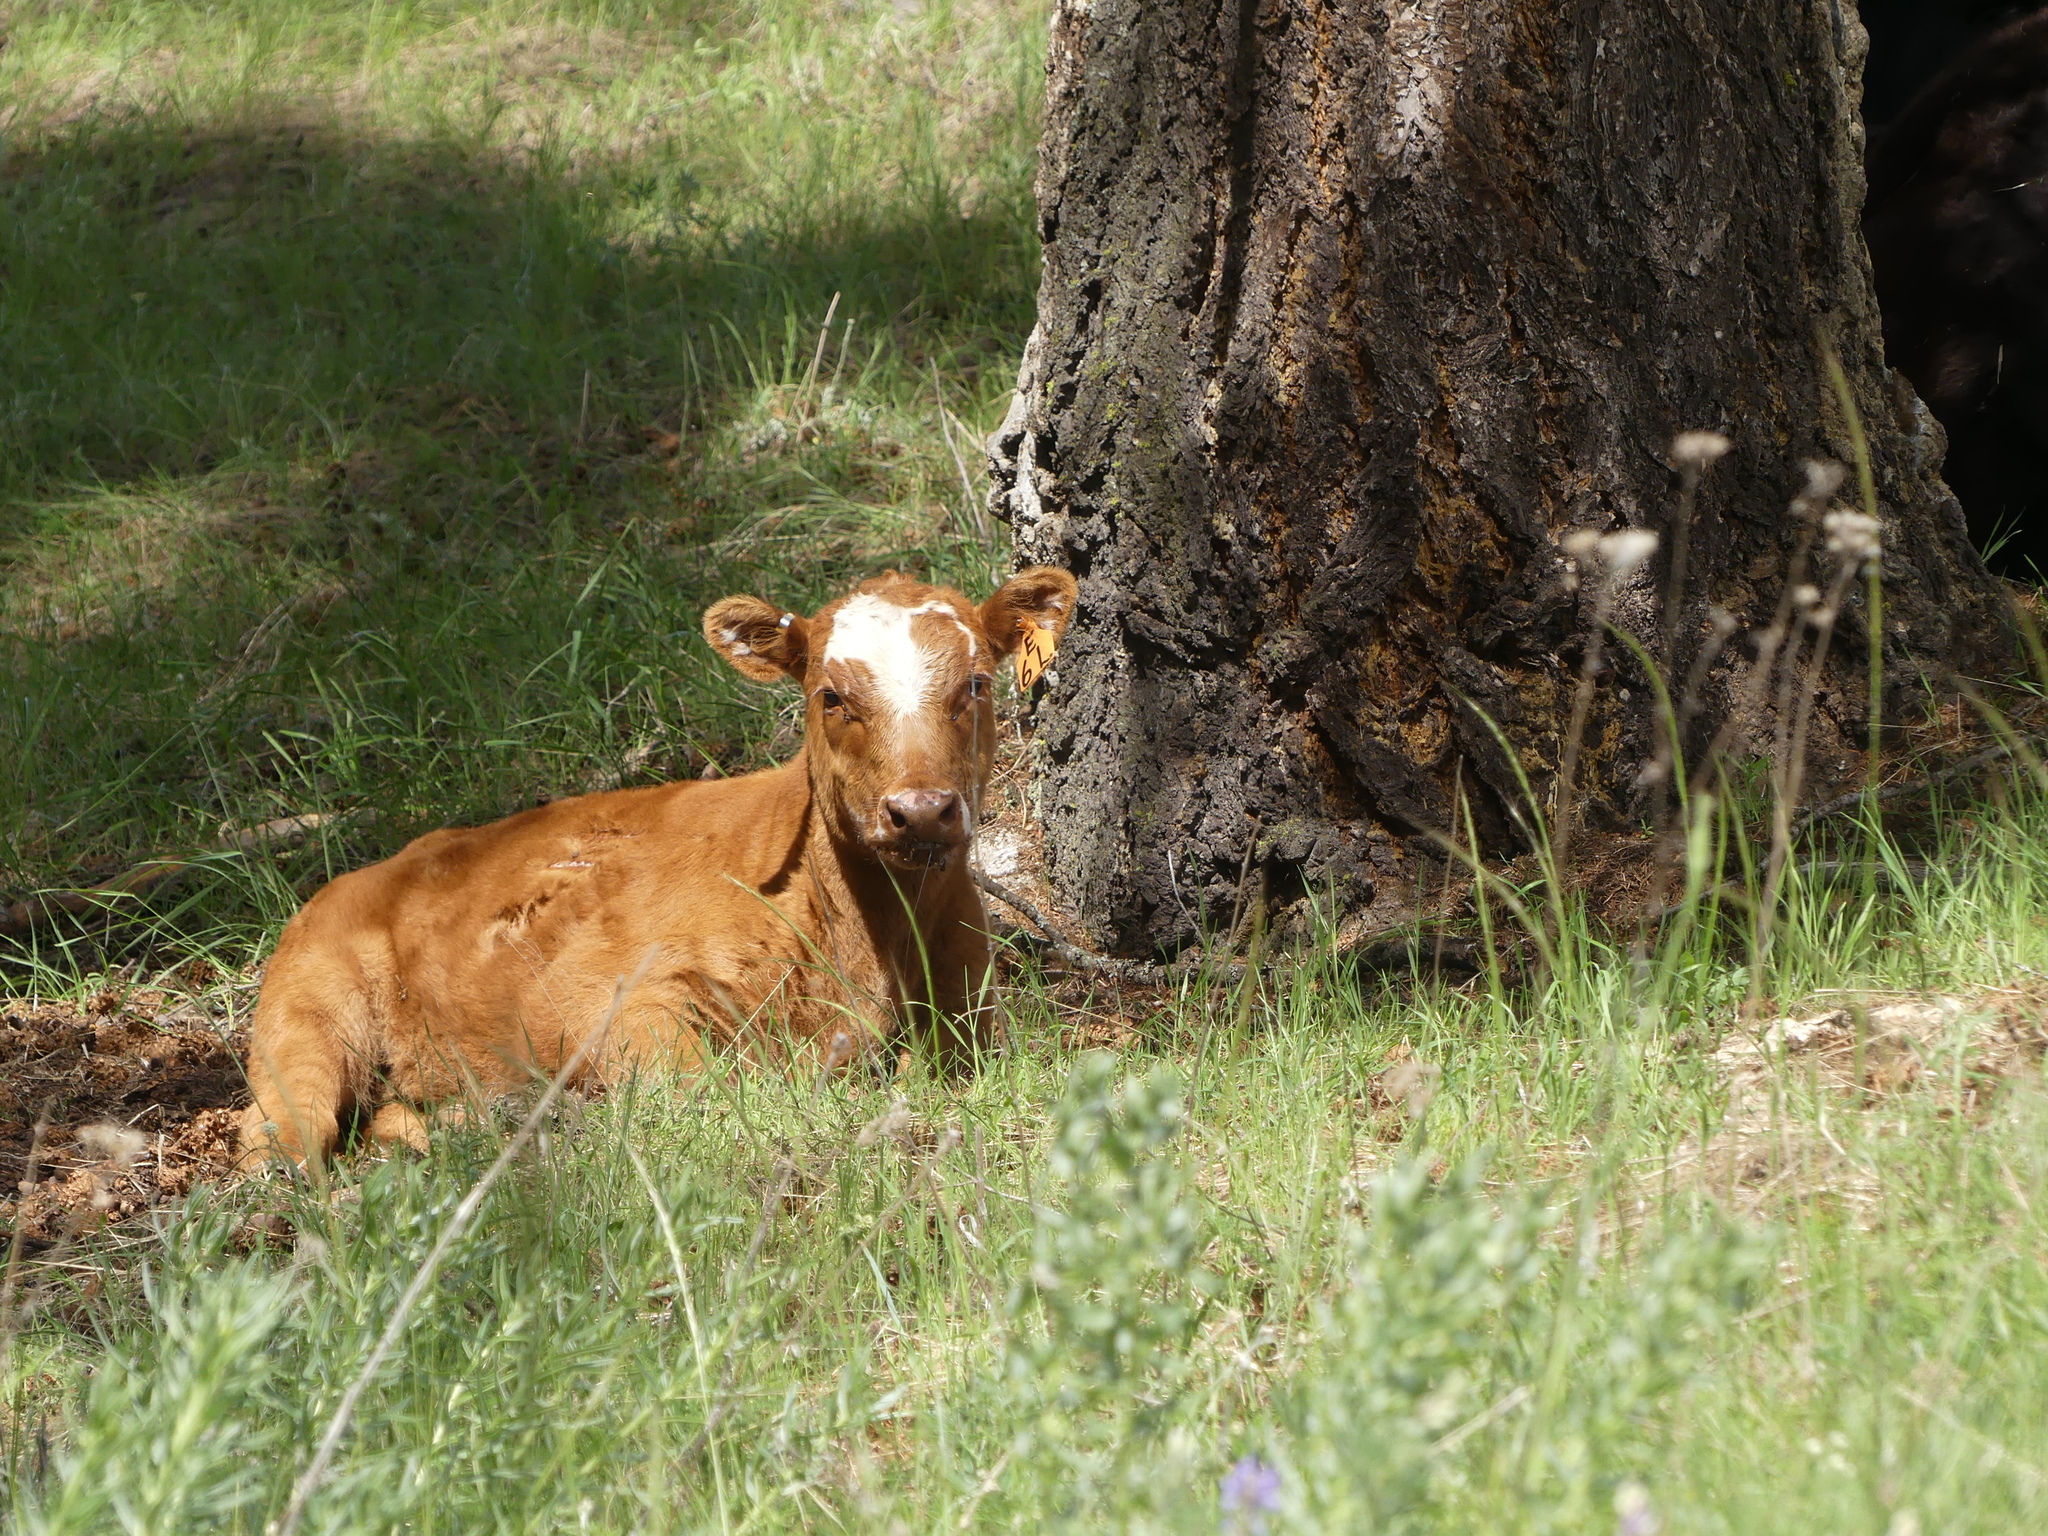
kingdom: Animalia
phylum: Chordata
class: Mammalia
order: Artiodactyla
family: Bovidae
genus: Bos
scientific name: Bos taurus
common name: Domesticated cattle
